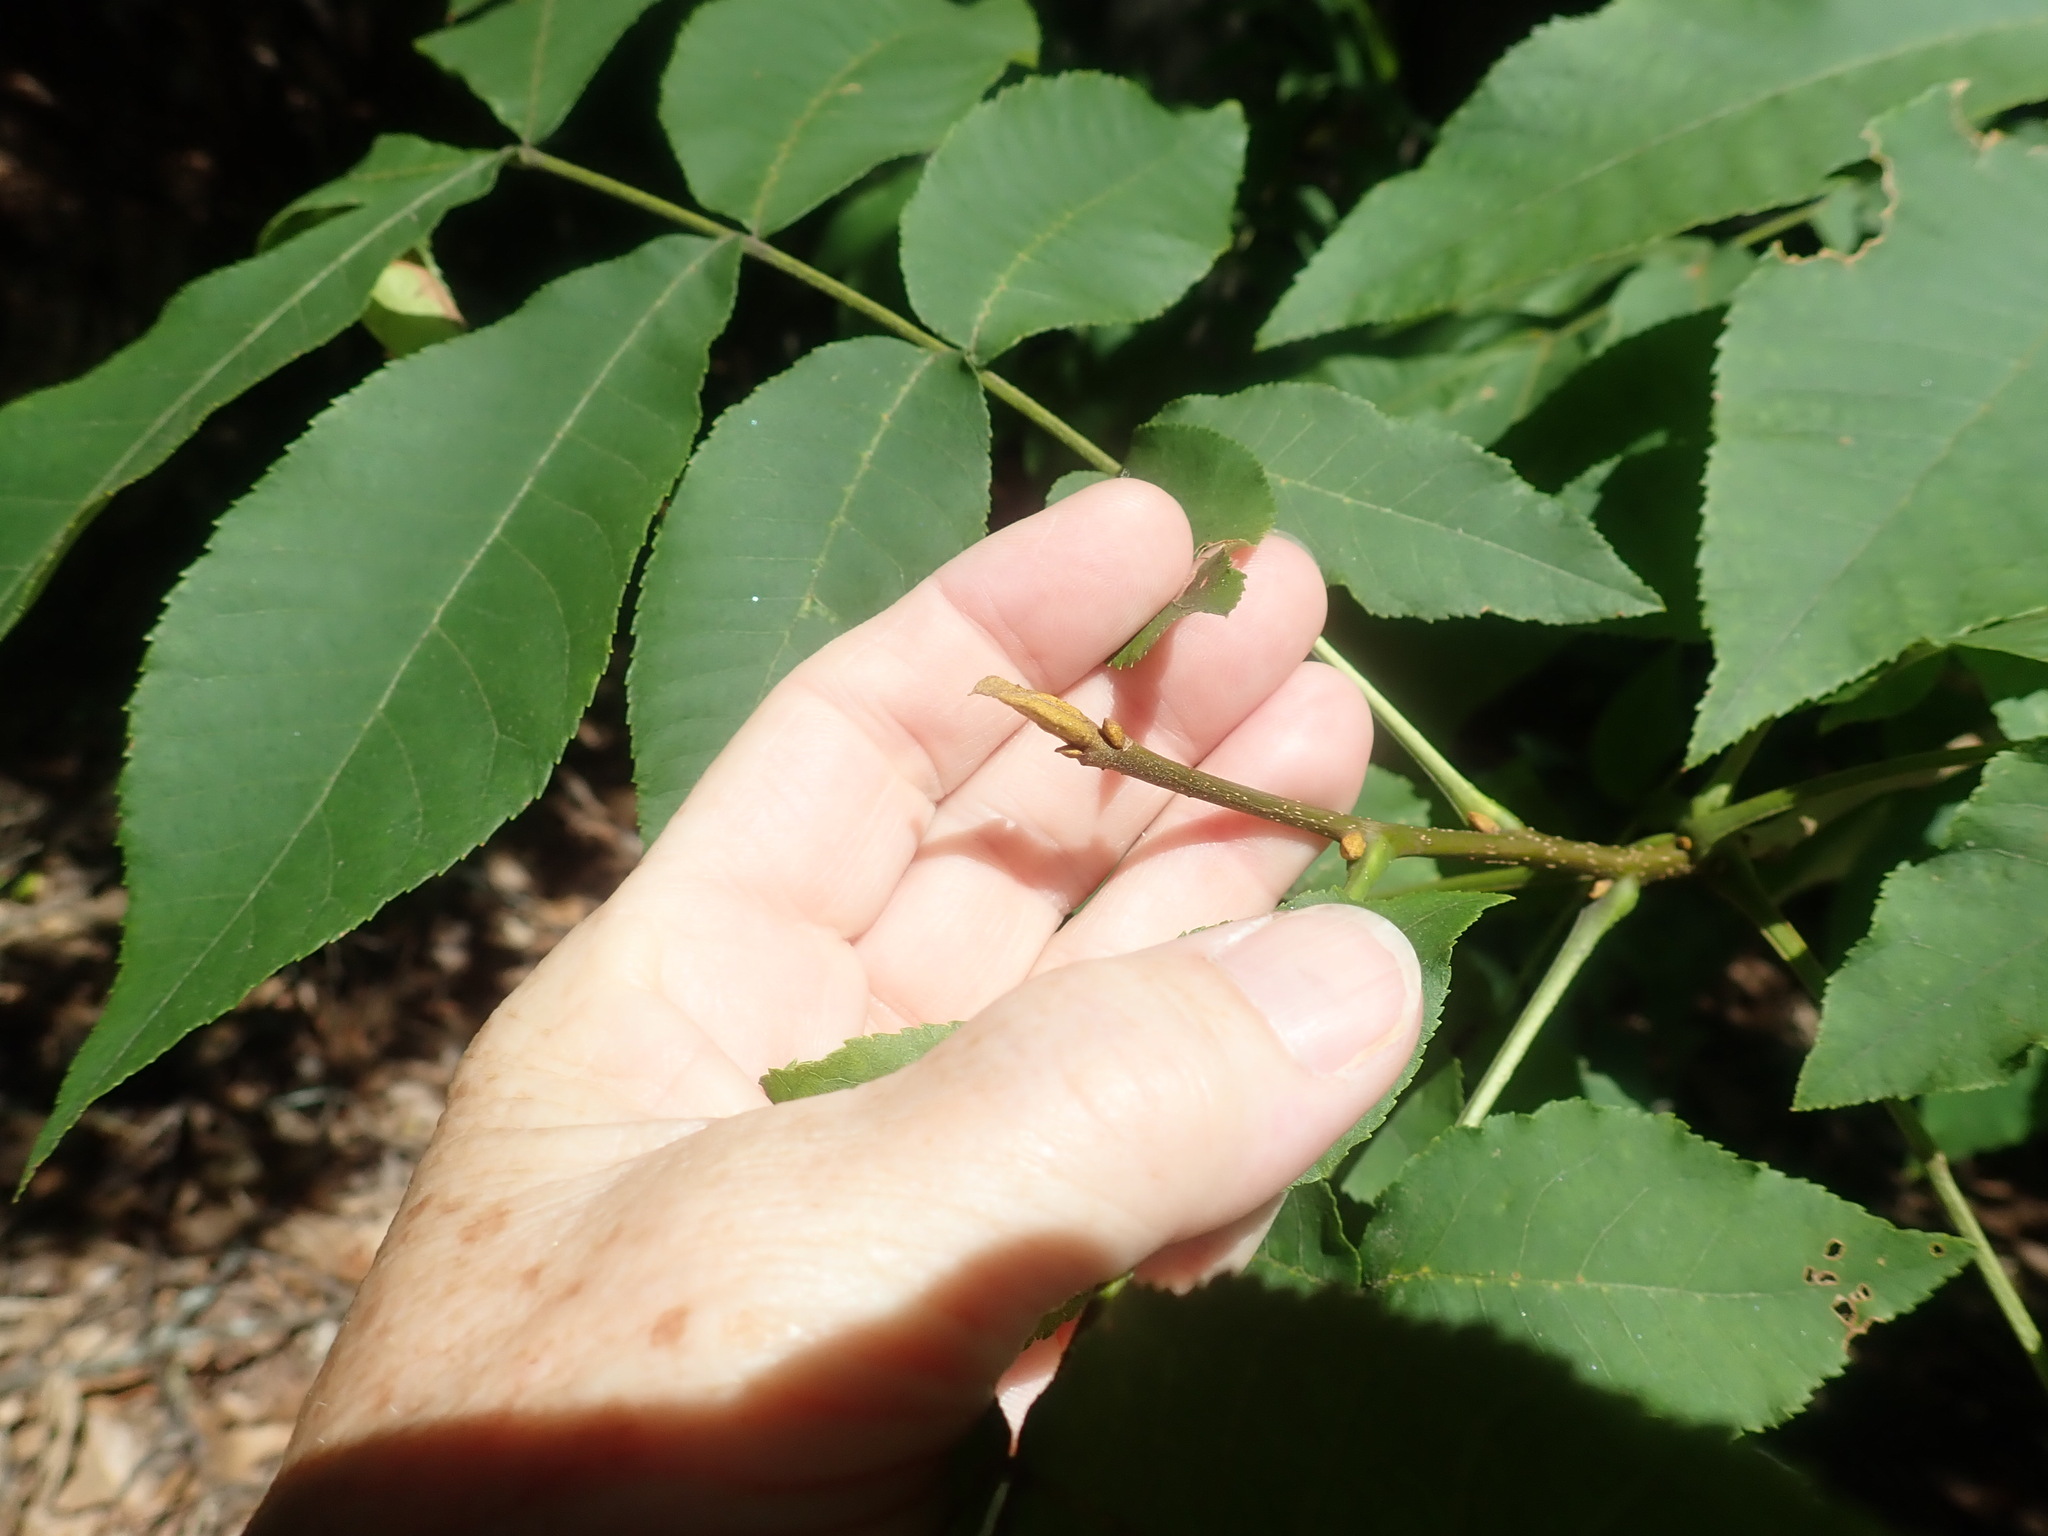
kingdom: Plantae
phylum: Tracheophyta
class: Magnoliopsida
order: Fagales
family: Juglandaceae
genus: Carya
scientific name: Carya cordiformis
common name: Bitternut hickory
